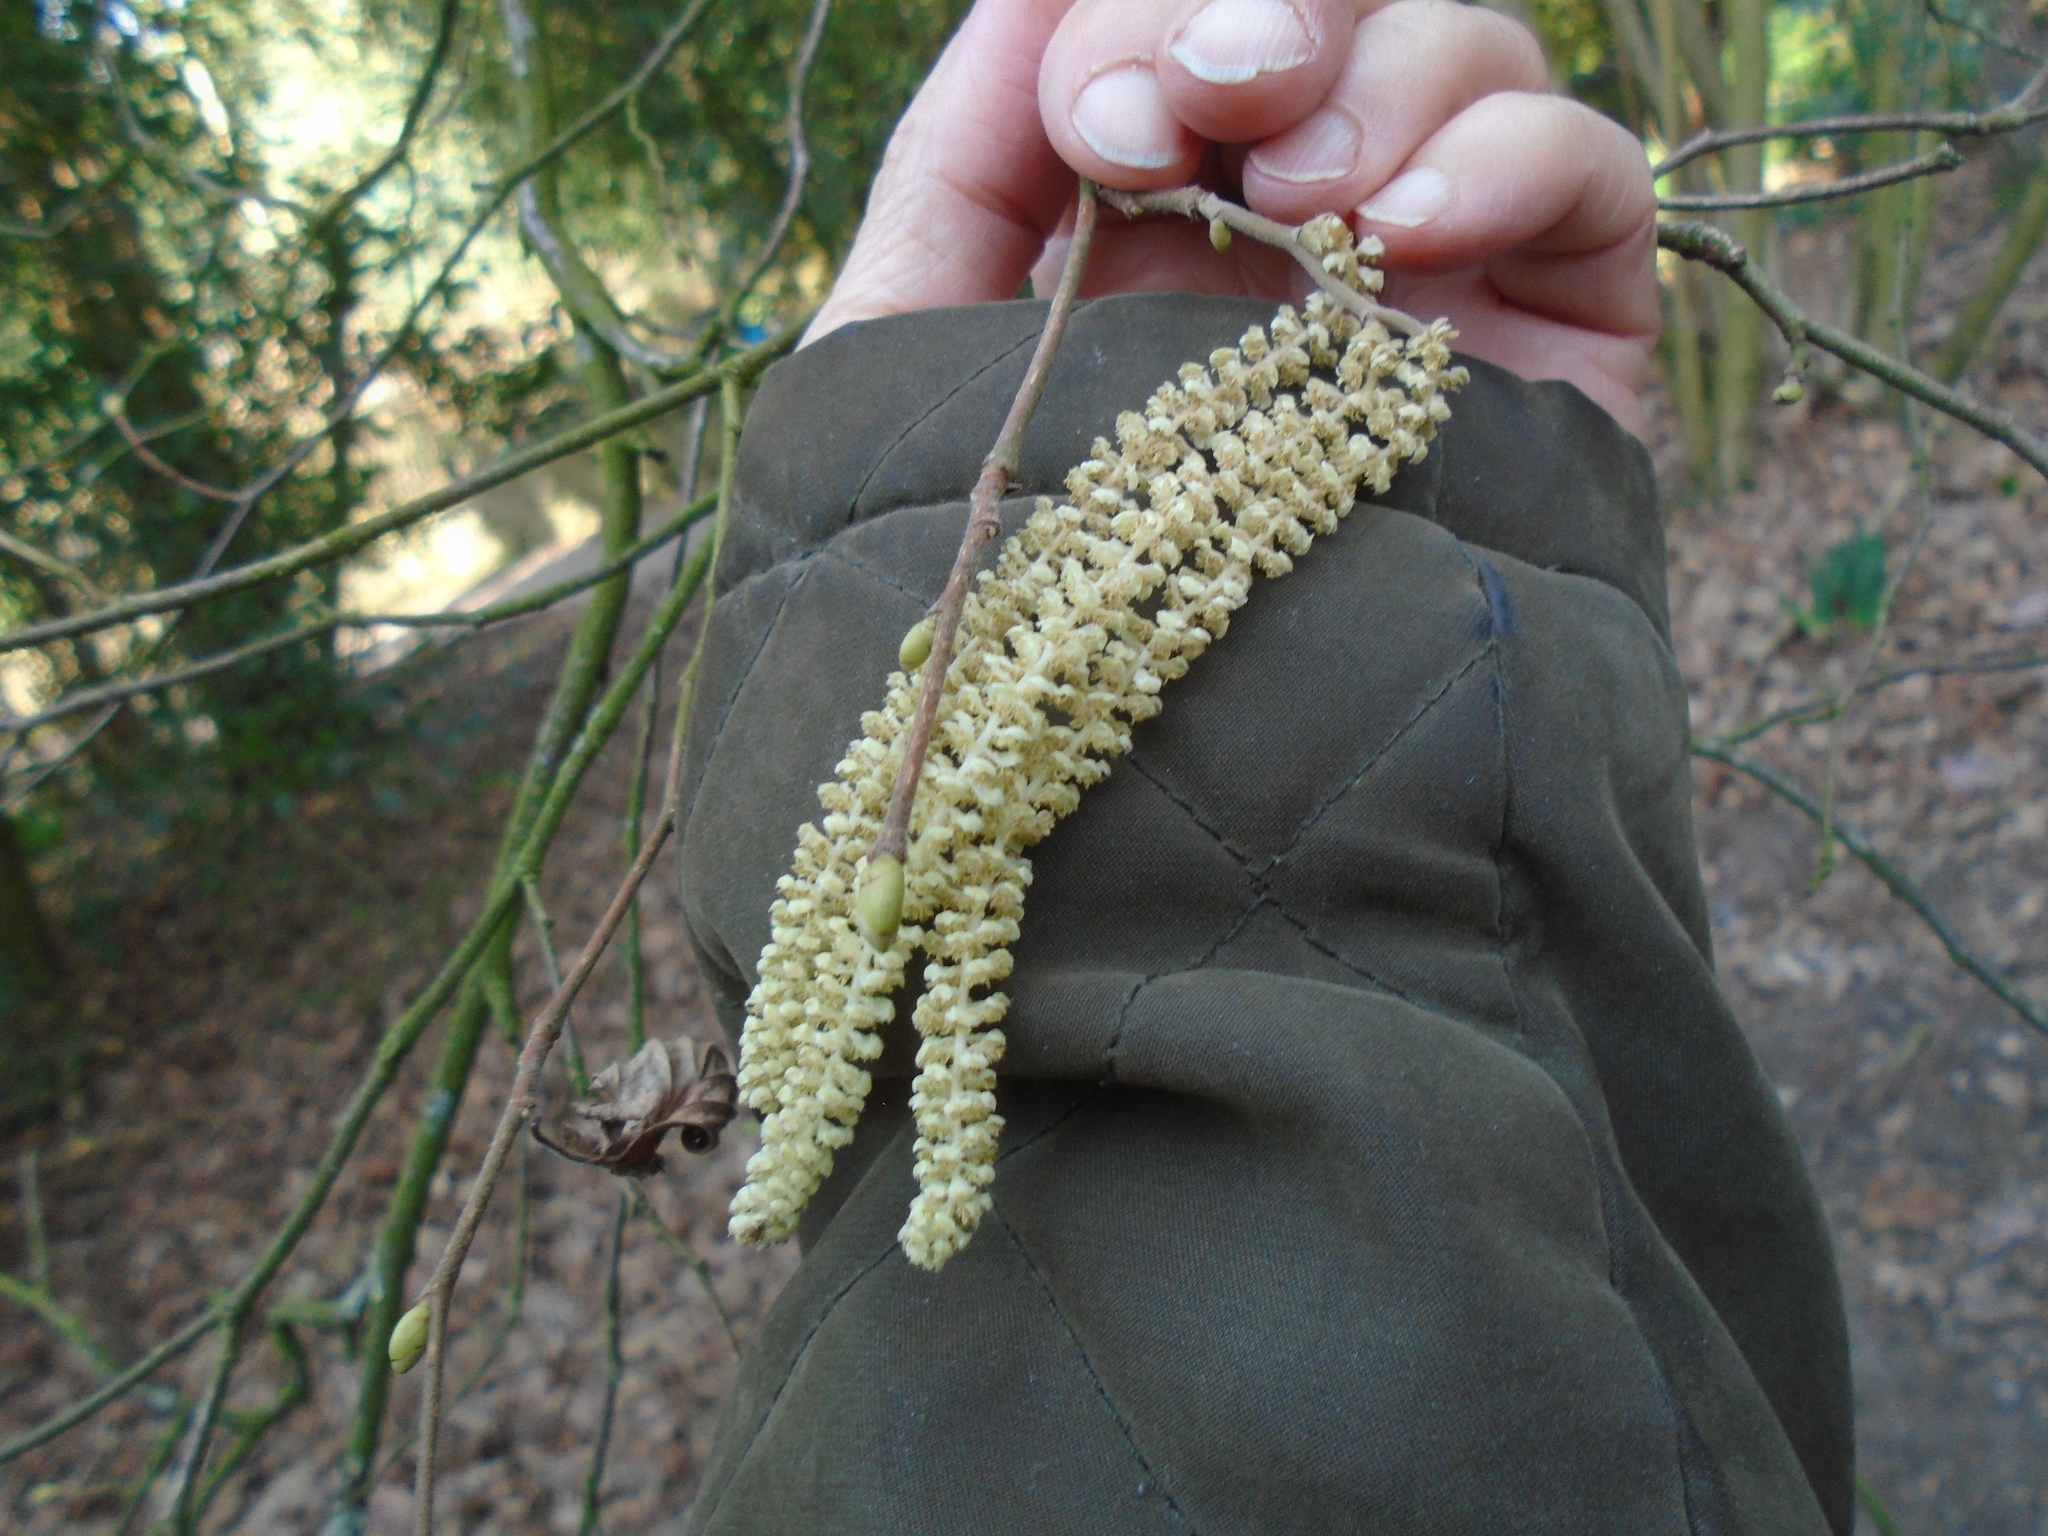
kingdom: Plantae
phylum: Tracheophyta
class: Magnoliopsida
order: Fagales
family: Betulaceae
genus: Corylus
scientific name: Corylus avellana
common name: European hazel
